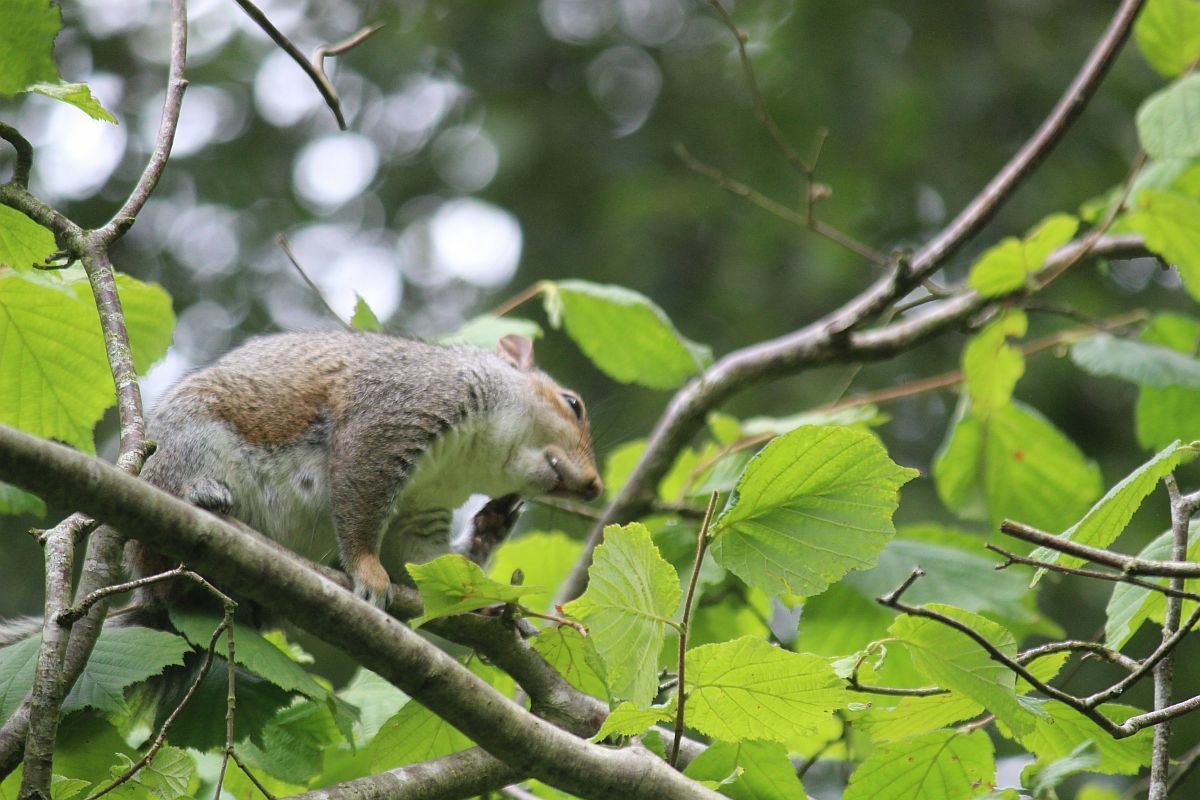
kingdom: Animalia
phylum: Chordata
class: Mammalia
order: Rodentia
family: Sciuridae
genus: Sciurus
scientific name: Sciurus carolinensis
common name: Eastern gray squirrel
